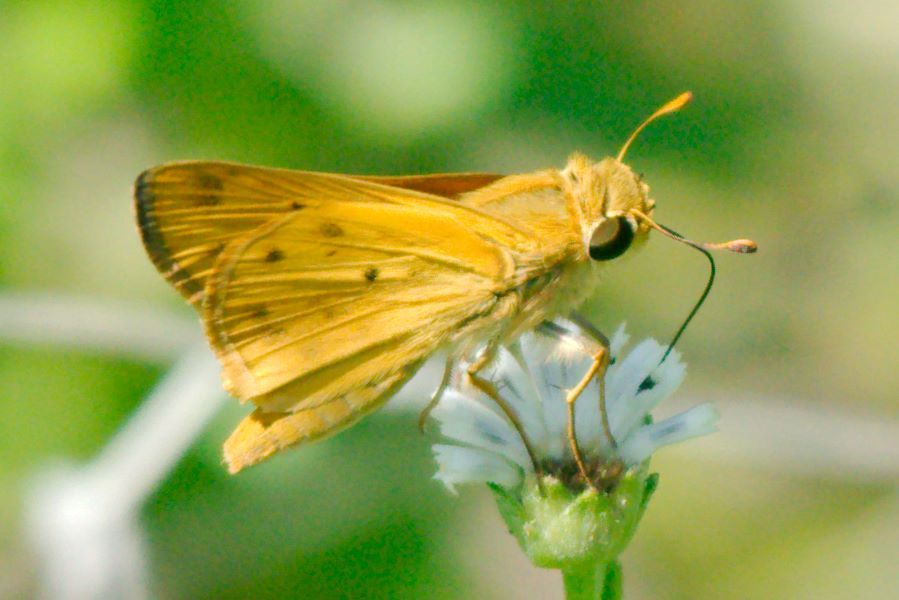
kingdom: Animalia
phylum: Arthropoda
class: Insecta
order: Lepidoptera
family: Hesperiidae
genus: Hylephila
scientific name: Hylephila phyleus
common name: Fiery skipper
